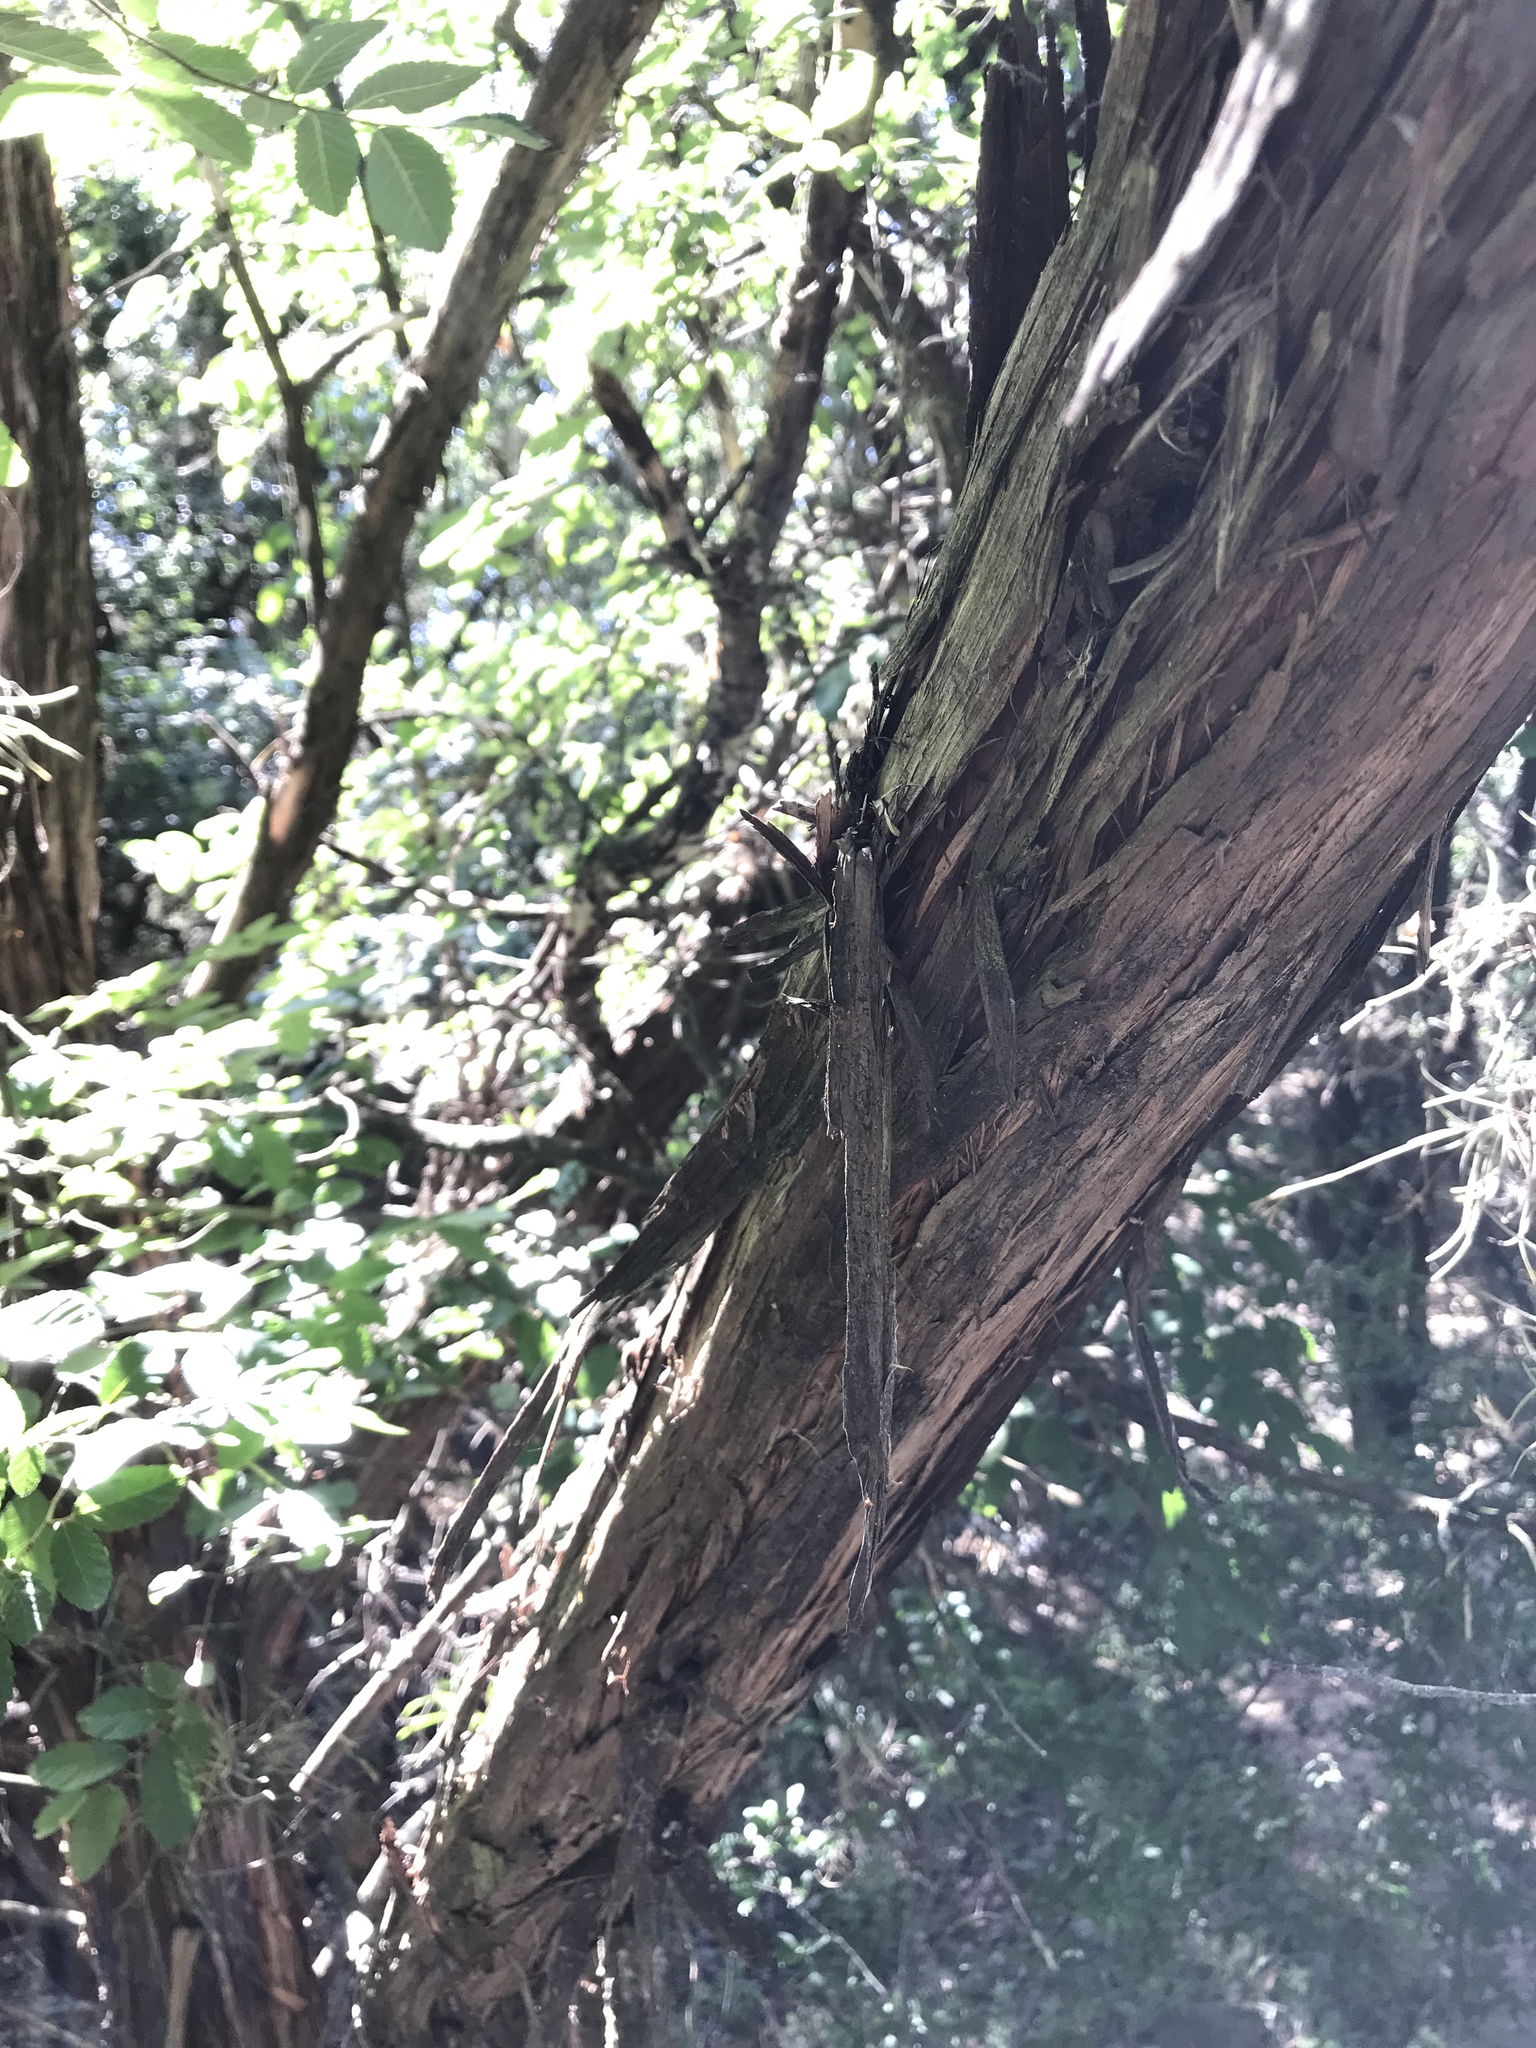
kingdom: Plantae
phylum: Tracheophyta
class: Pinopsida
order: Pinales
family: Cupressaceae
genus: Juniperus
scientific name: Juniperus ashei
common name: Mexican juniper
